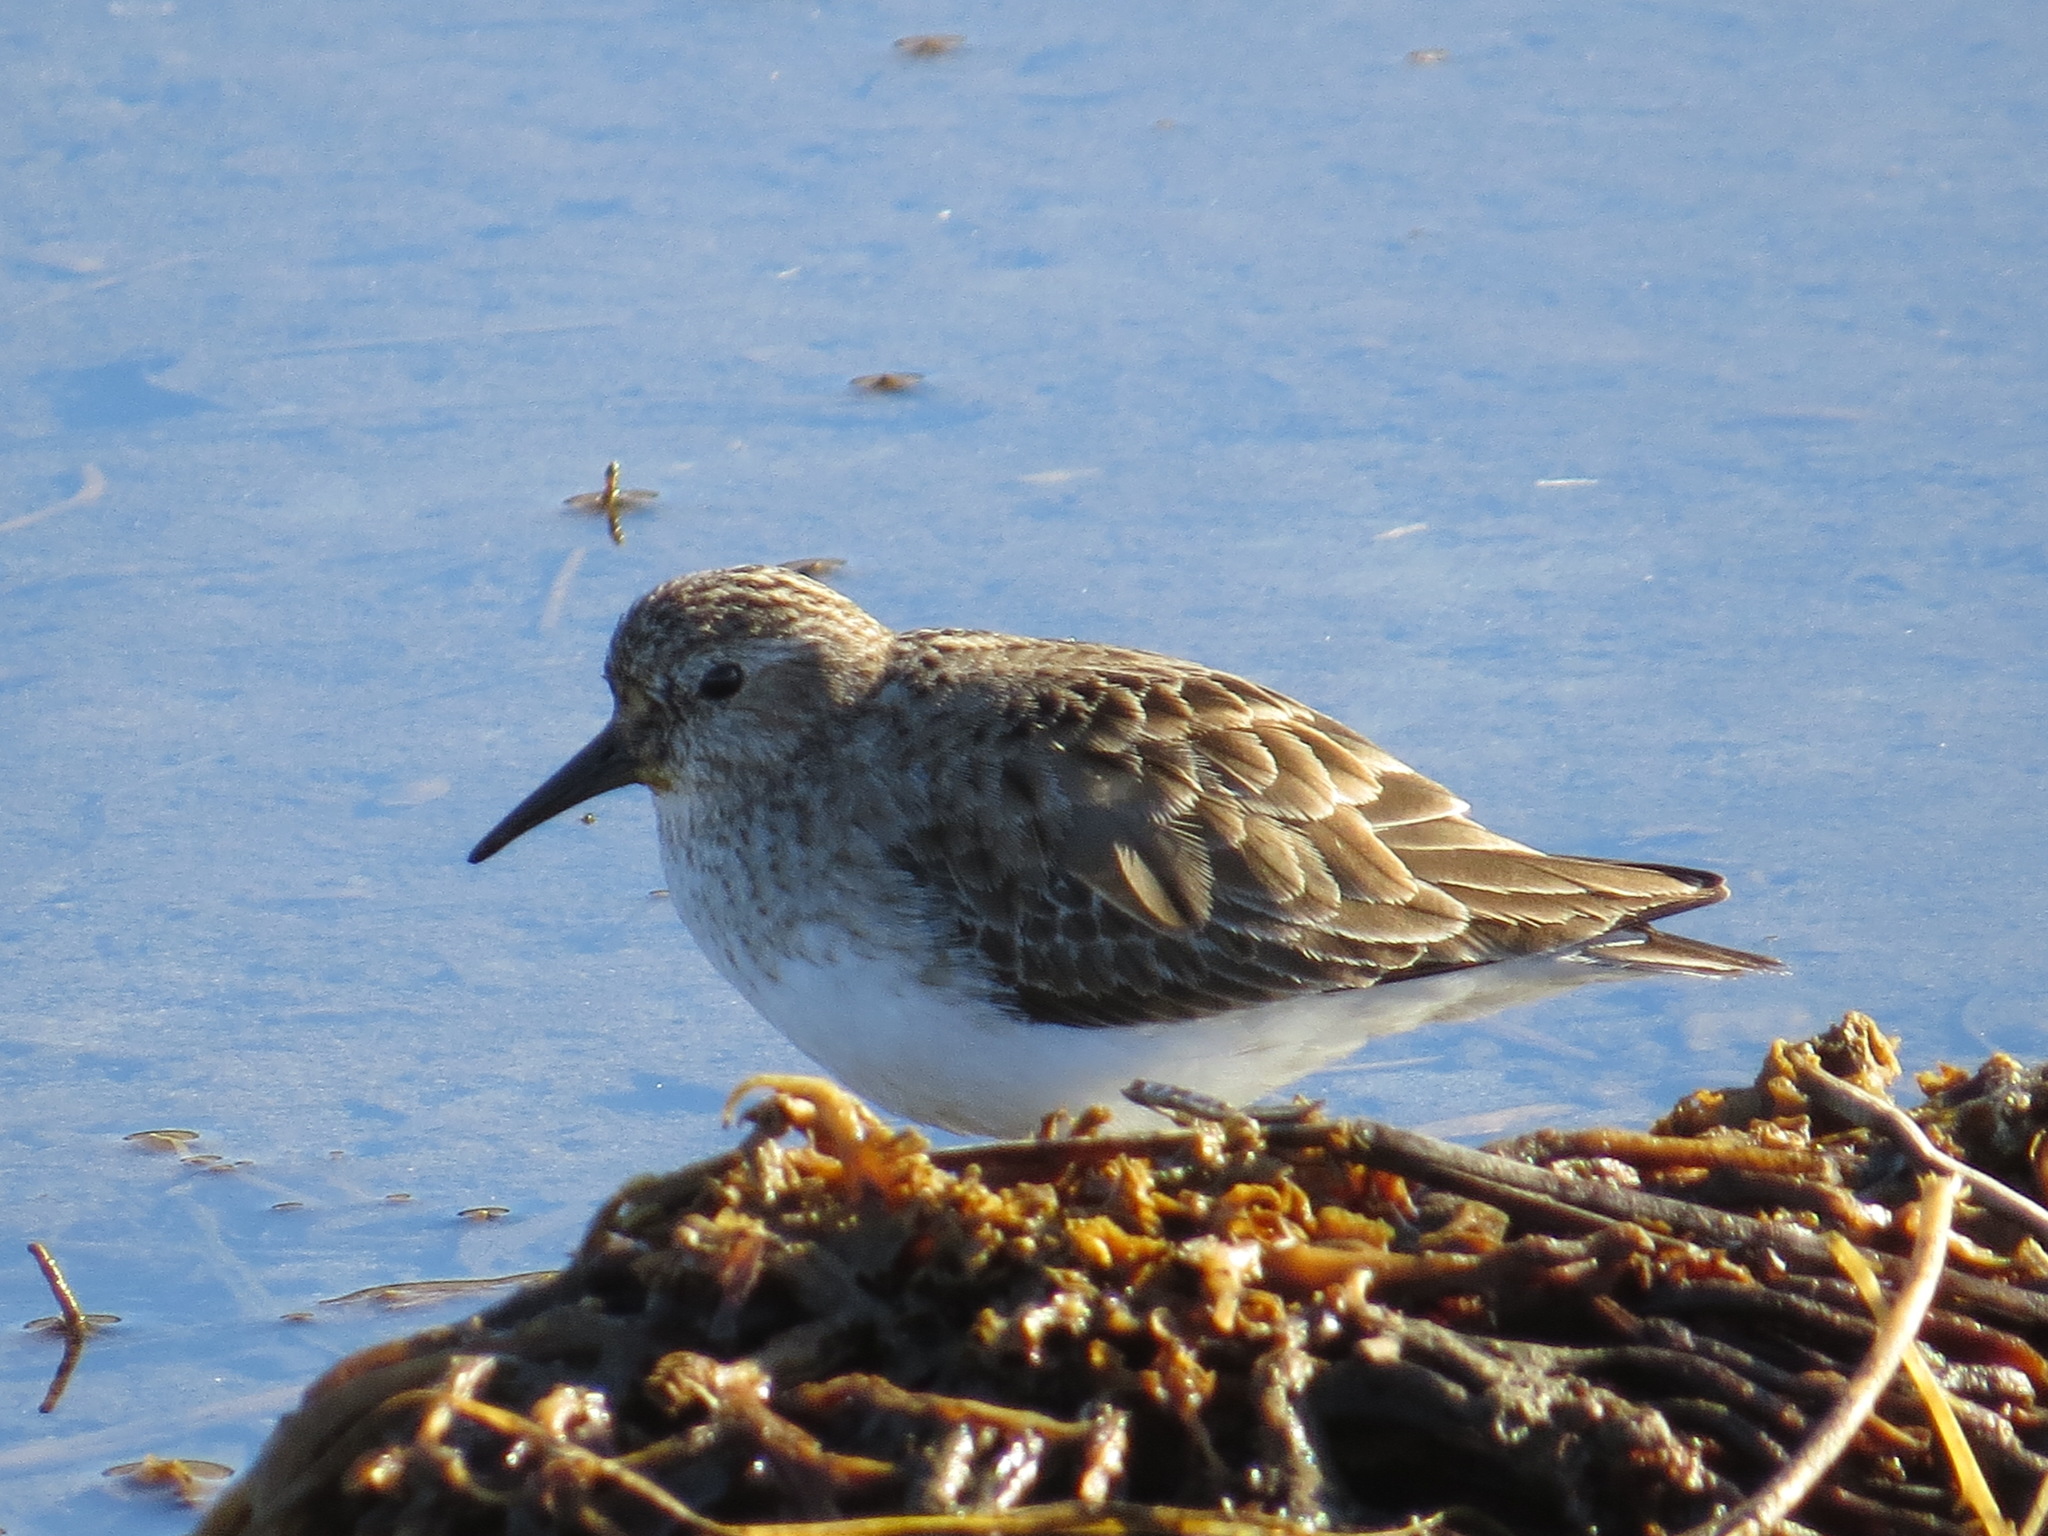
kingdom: Animalia
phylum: Chordata
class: Aves
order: Charadriiformes
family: Scolopacidae
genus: Calidris
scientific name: Calidris minutilla
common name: Least sandpiper
